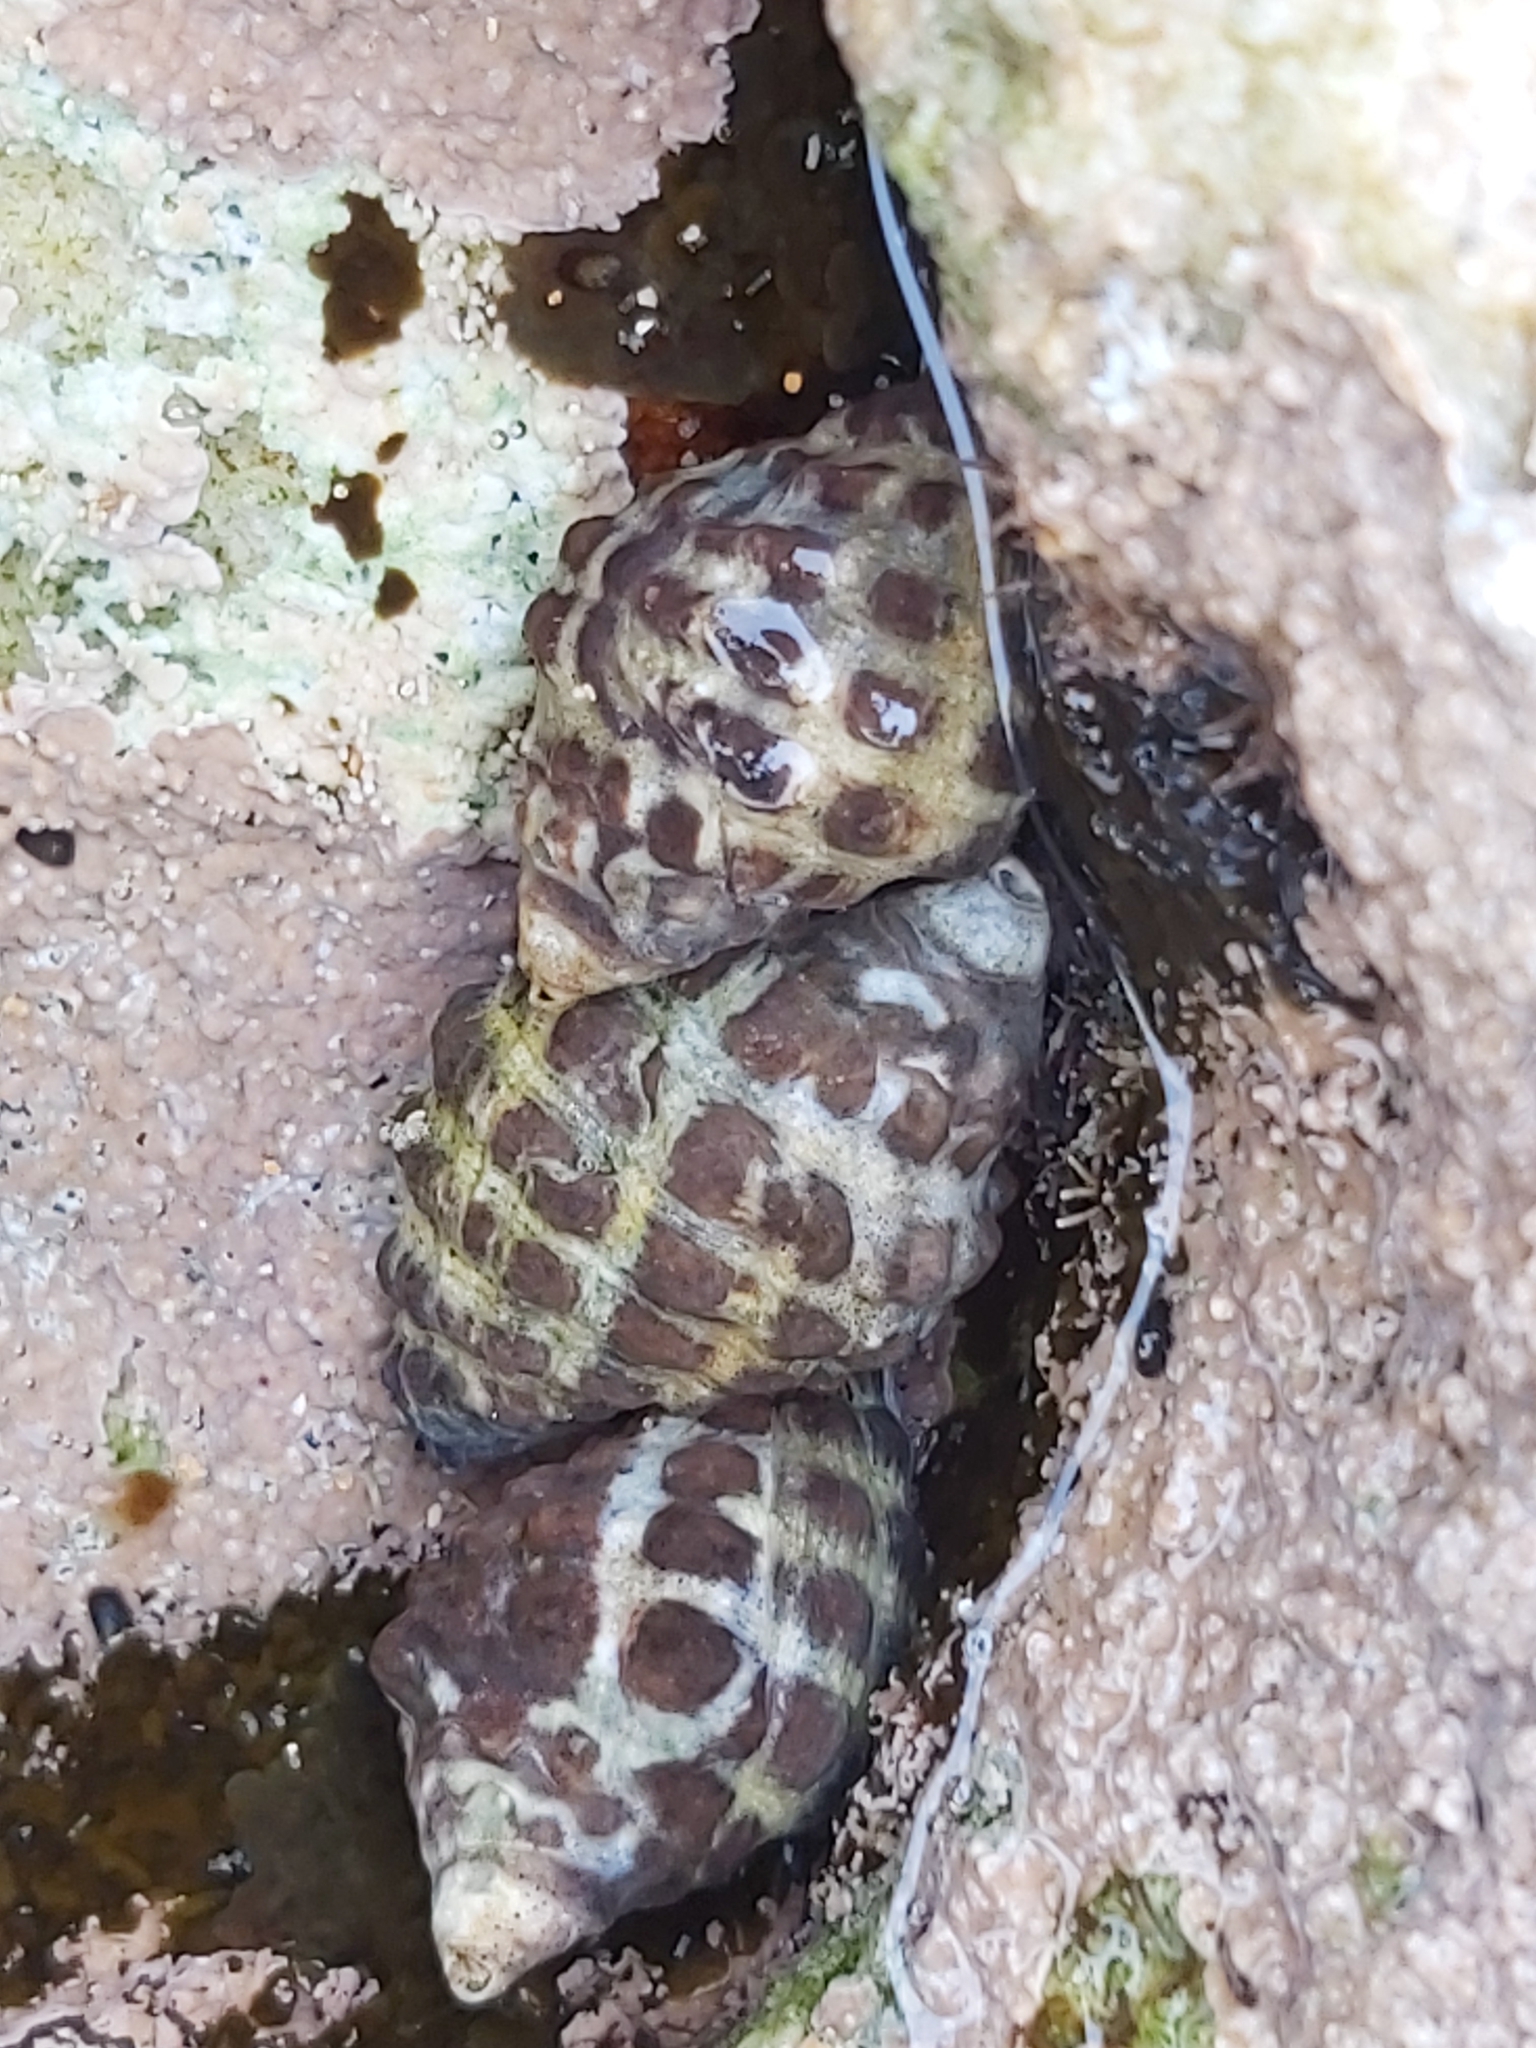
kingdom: Animalia
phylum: Mollusca
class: Gastropoda
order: Neogastropoda
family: Muricidae
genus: Tenguella
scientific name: Tenguella marginalba
